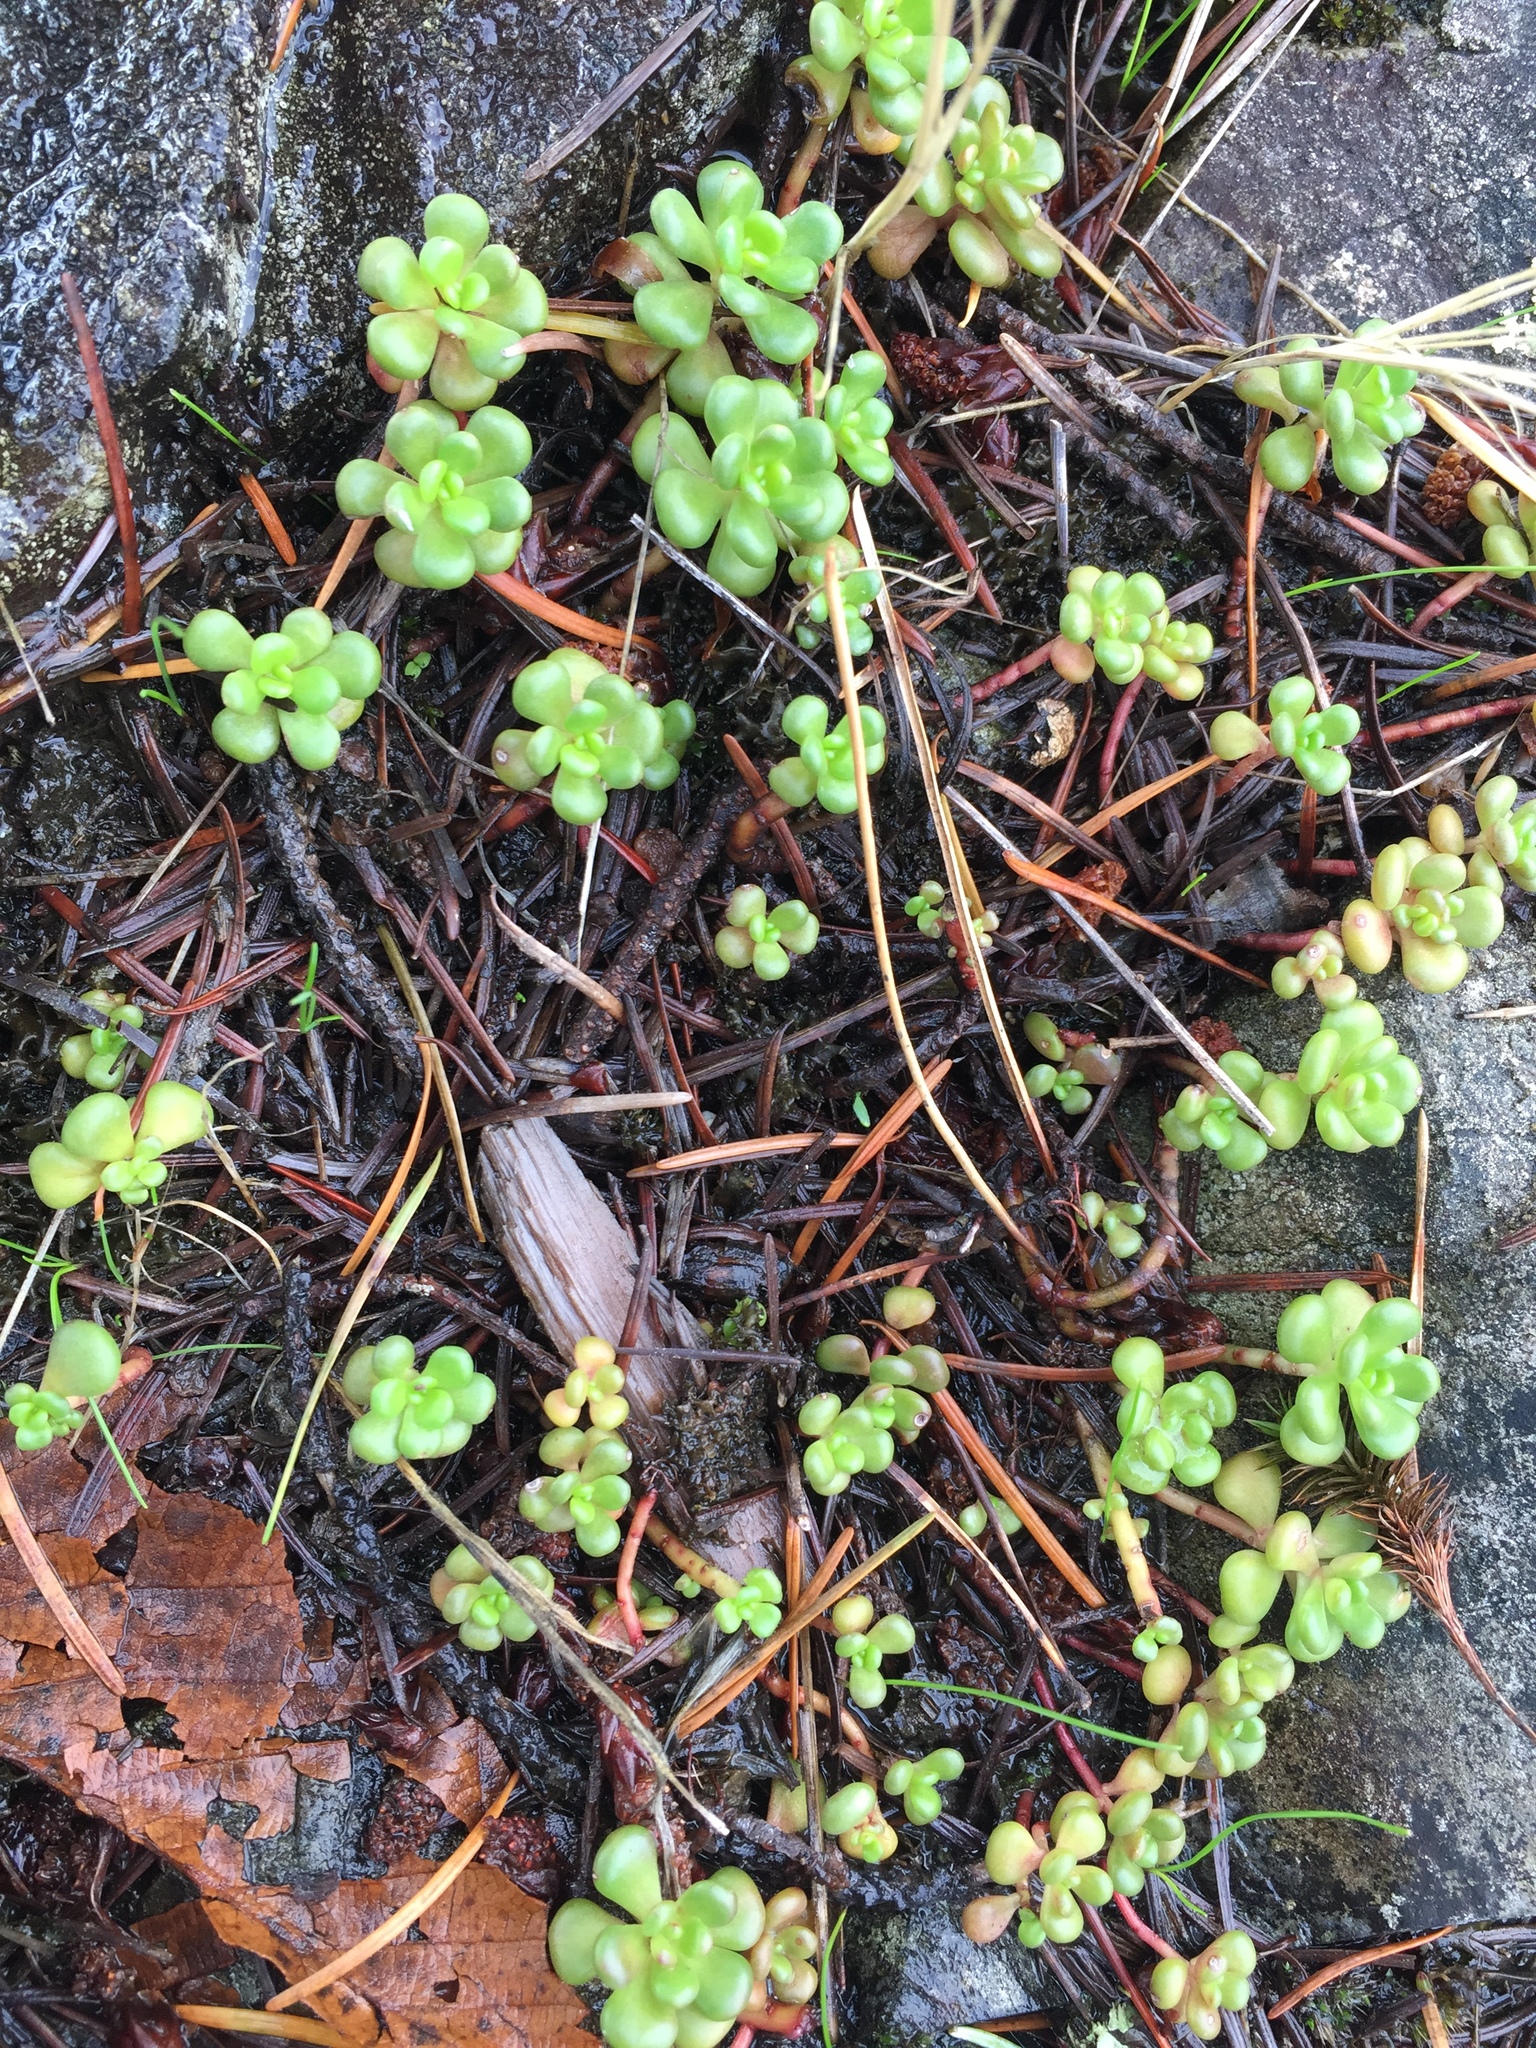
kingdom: Plantae
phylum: Tracheophyta
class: Magnoliopsida
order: Saxifragales
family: Crassulaceae
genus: Sedum
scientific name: Sedum oreganum
